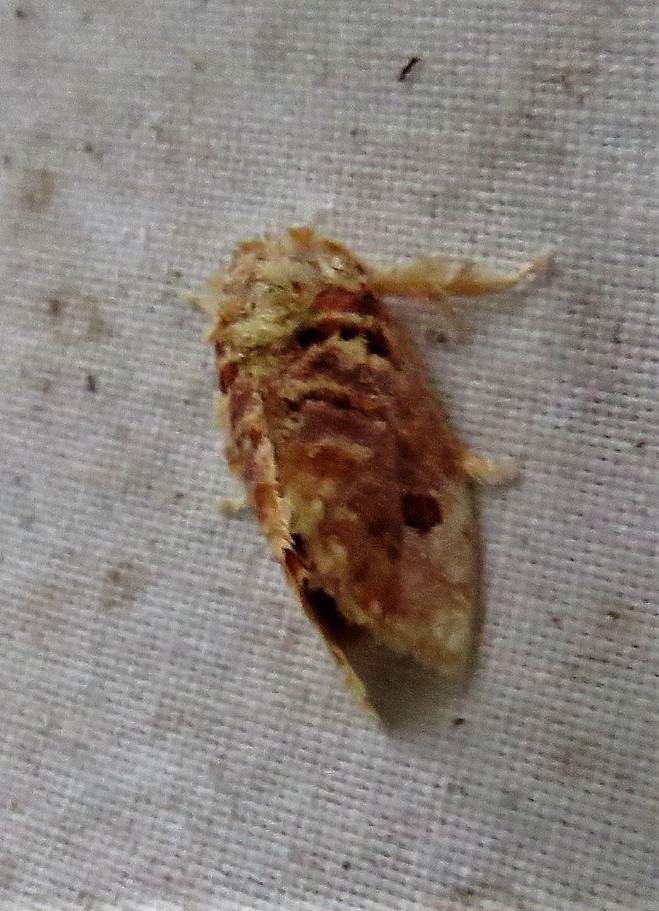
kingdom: Animalia
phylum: Arthropoda
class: Insecta
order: Lepidoptera
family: Limacodidae
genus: Euphobetron
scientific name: Euphobetron moorei
